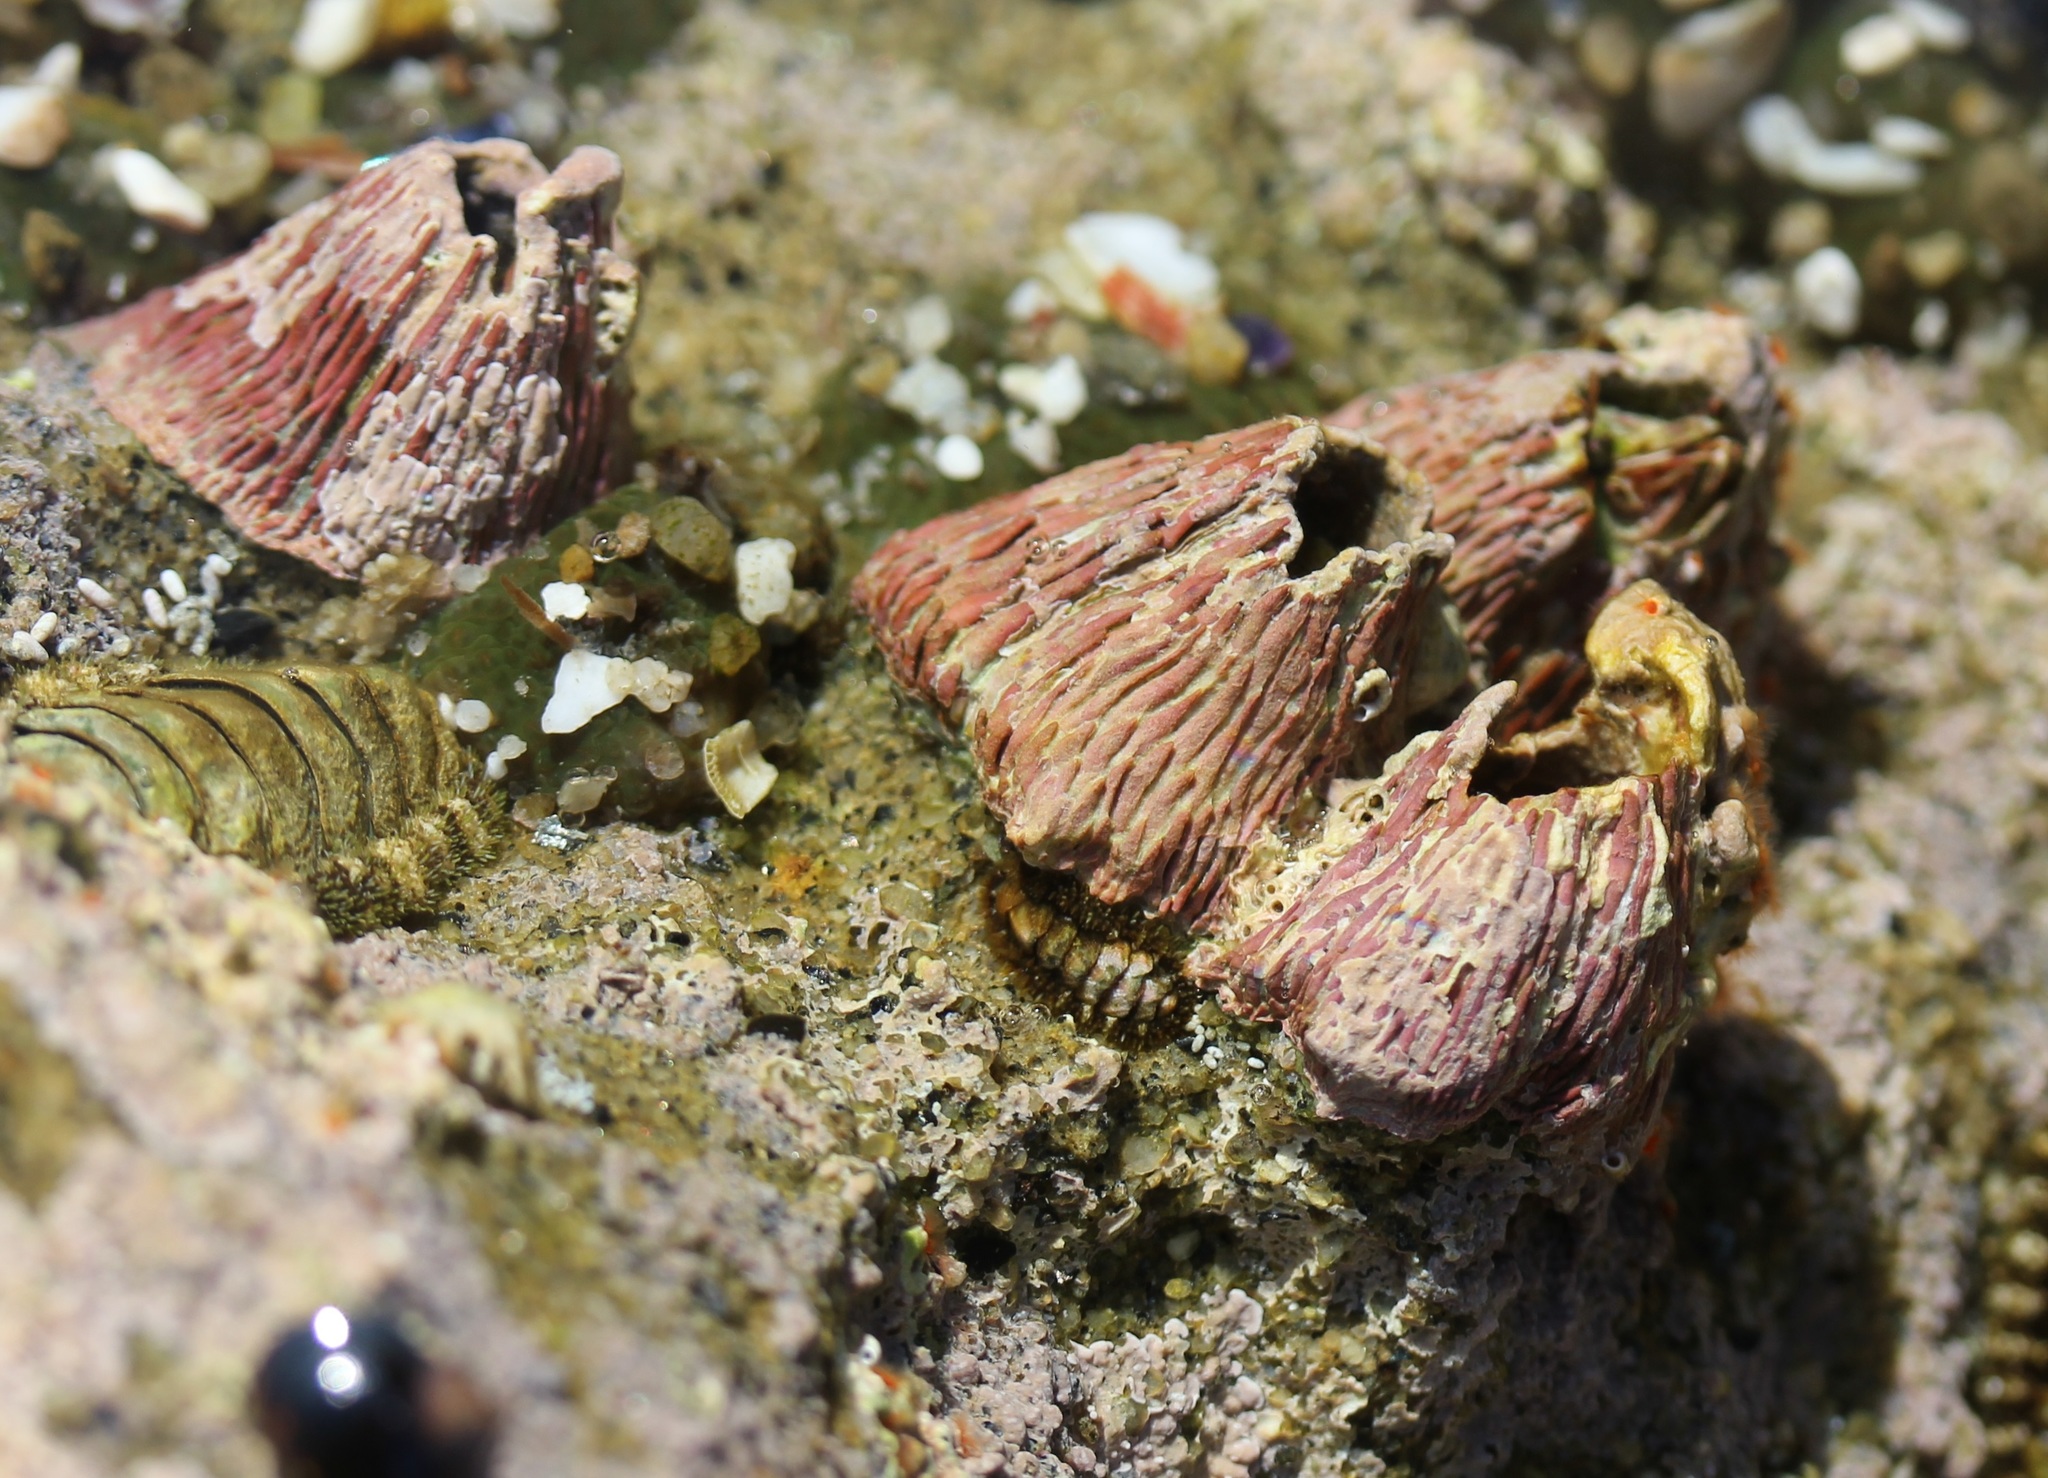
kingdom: Animalia
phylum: Arthropoda
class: Maxillopoda
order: Sessilia
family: Tetraclitidae
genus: Tetraclita
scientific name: Tetraclita rubescens
